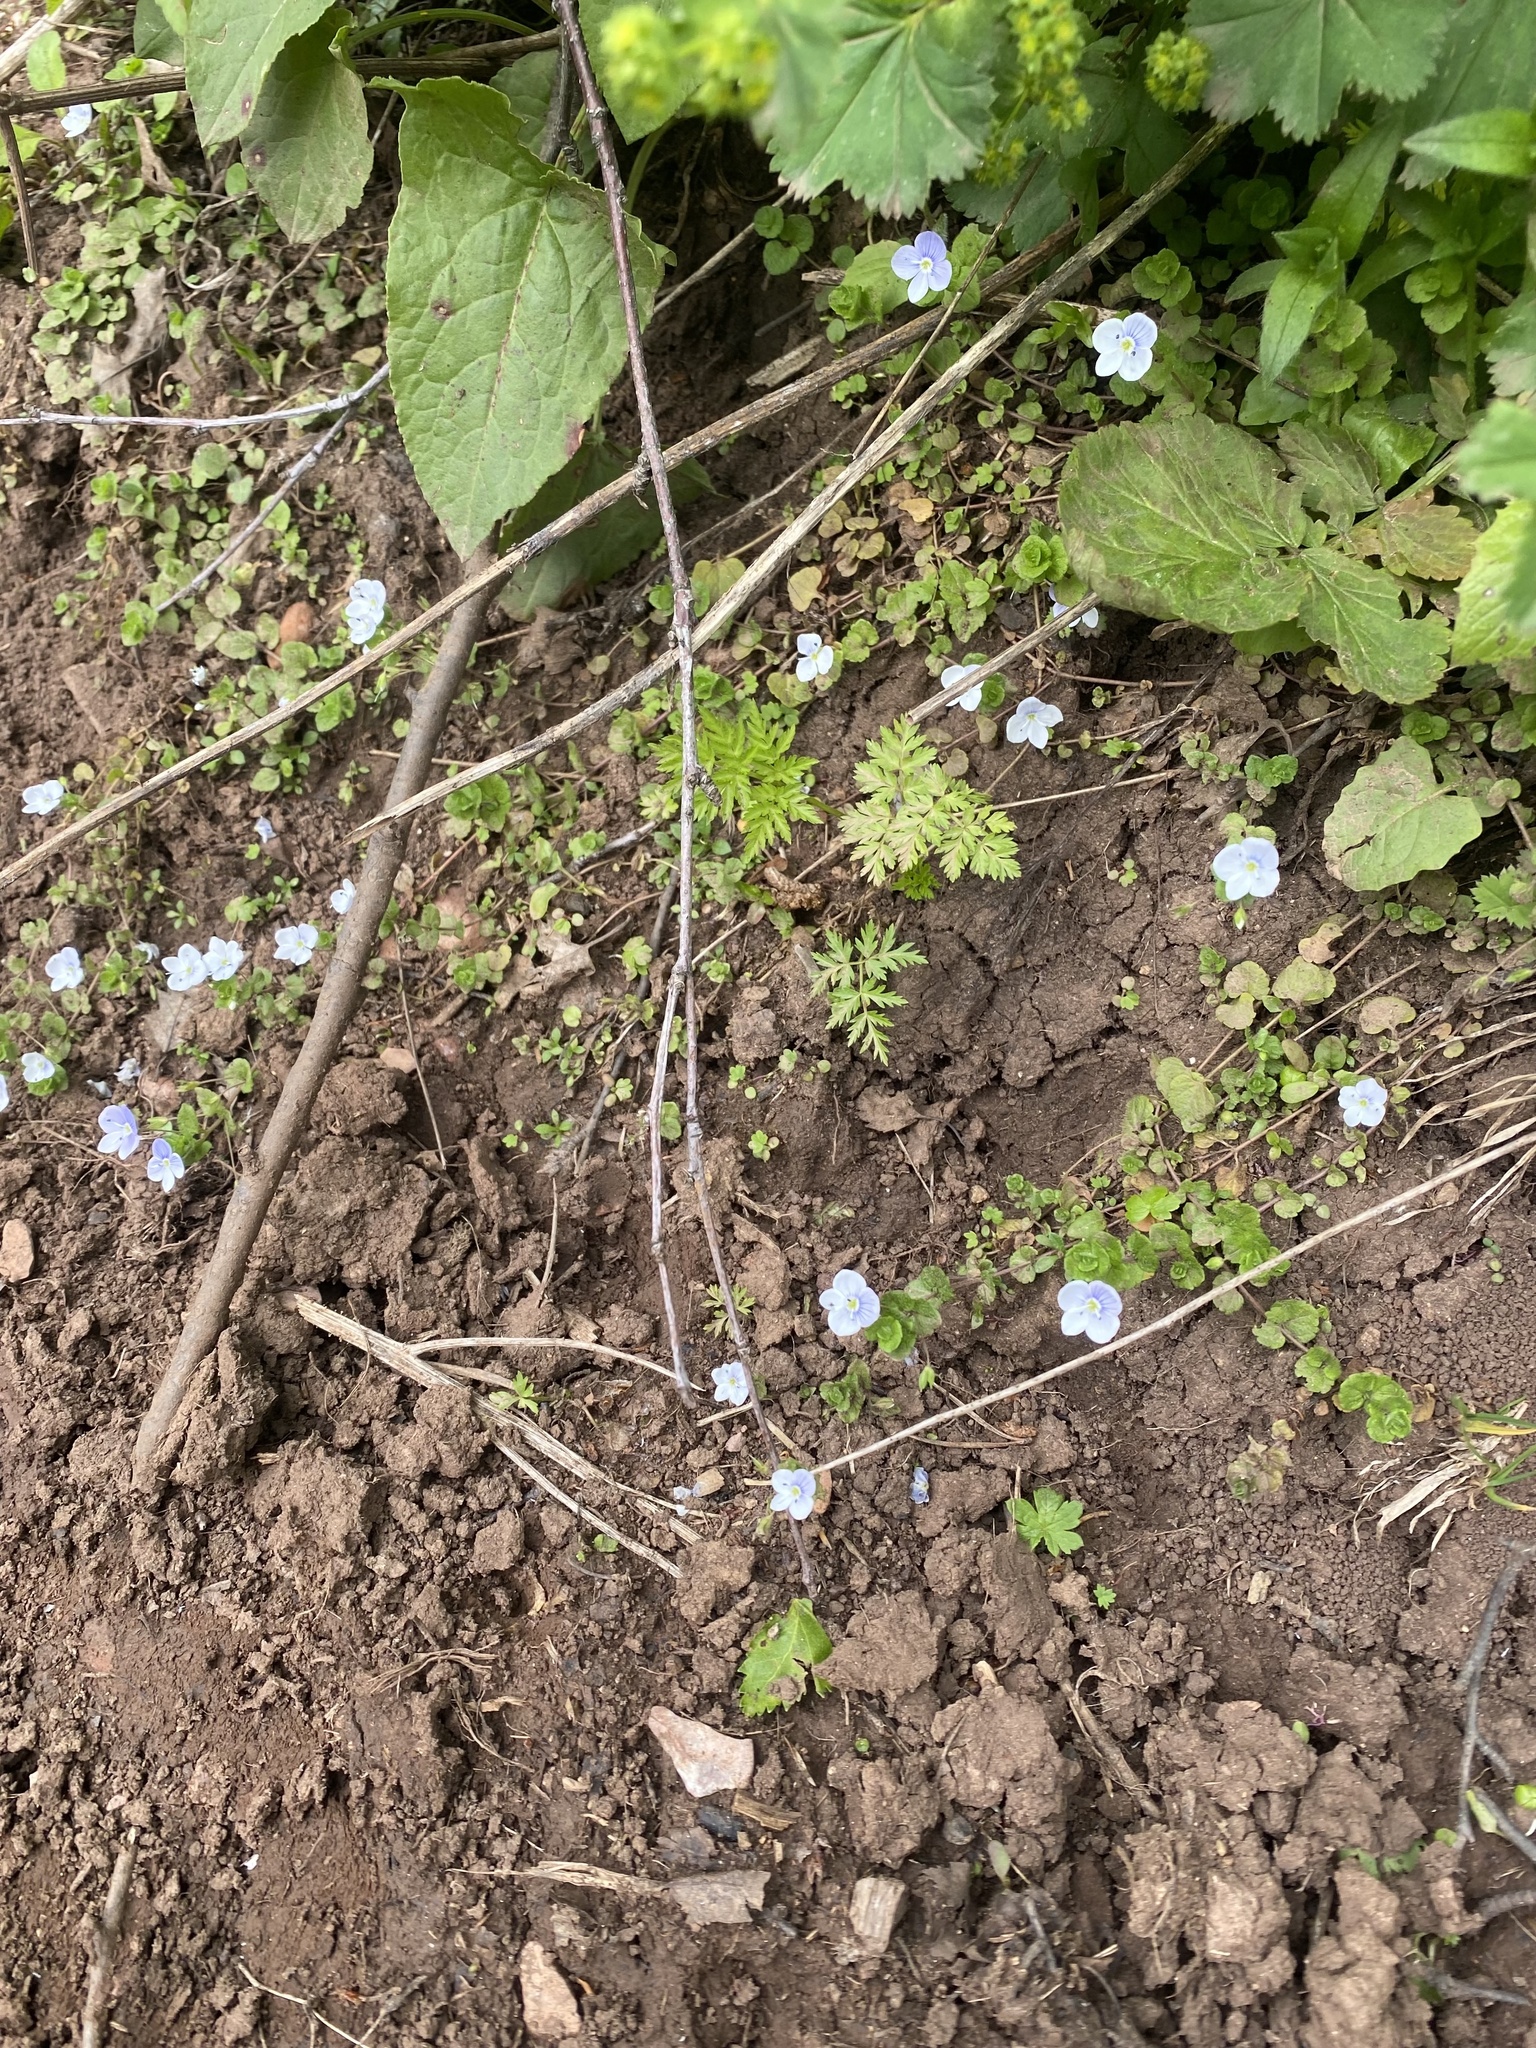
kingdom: Plantae
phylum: Tracheophyta
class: Magnoliopsida
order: Lamiales
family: Plantaginaceae
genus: Veronica
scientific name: Veronica filiformis
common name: Slender speedwell
